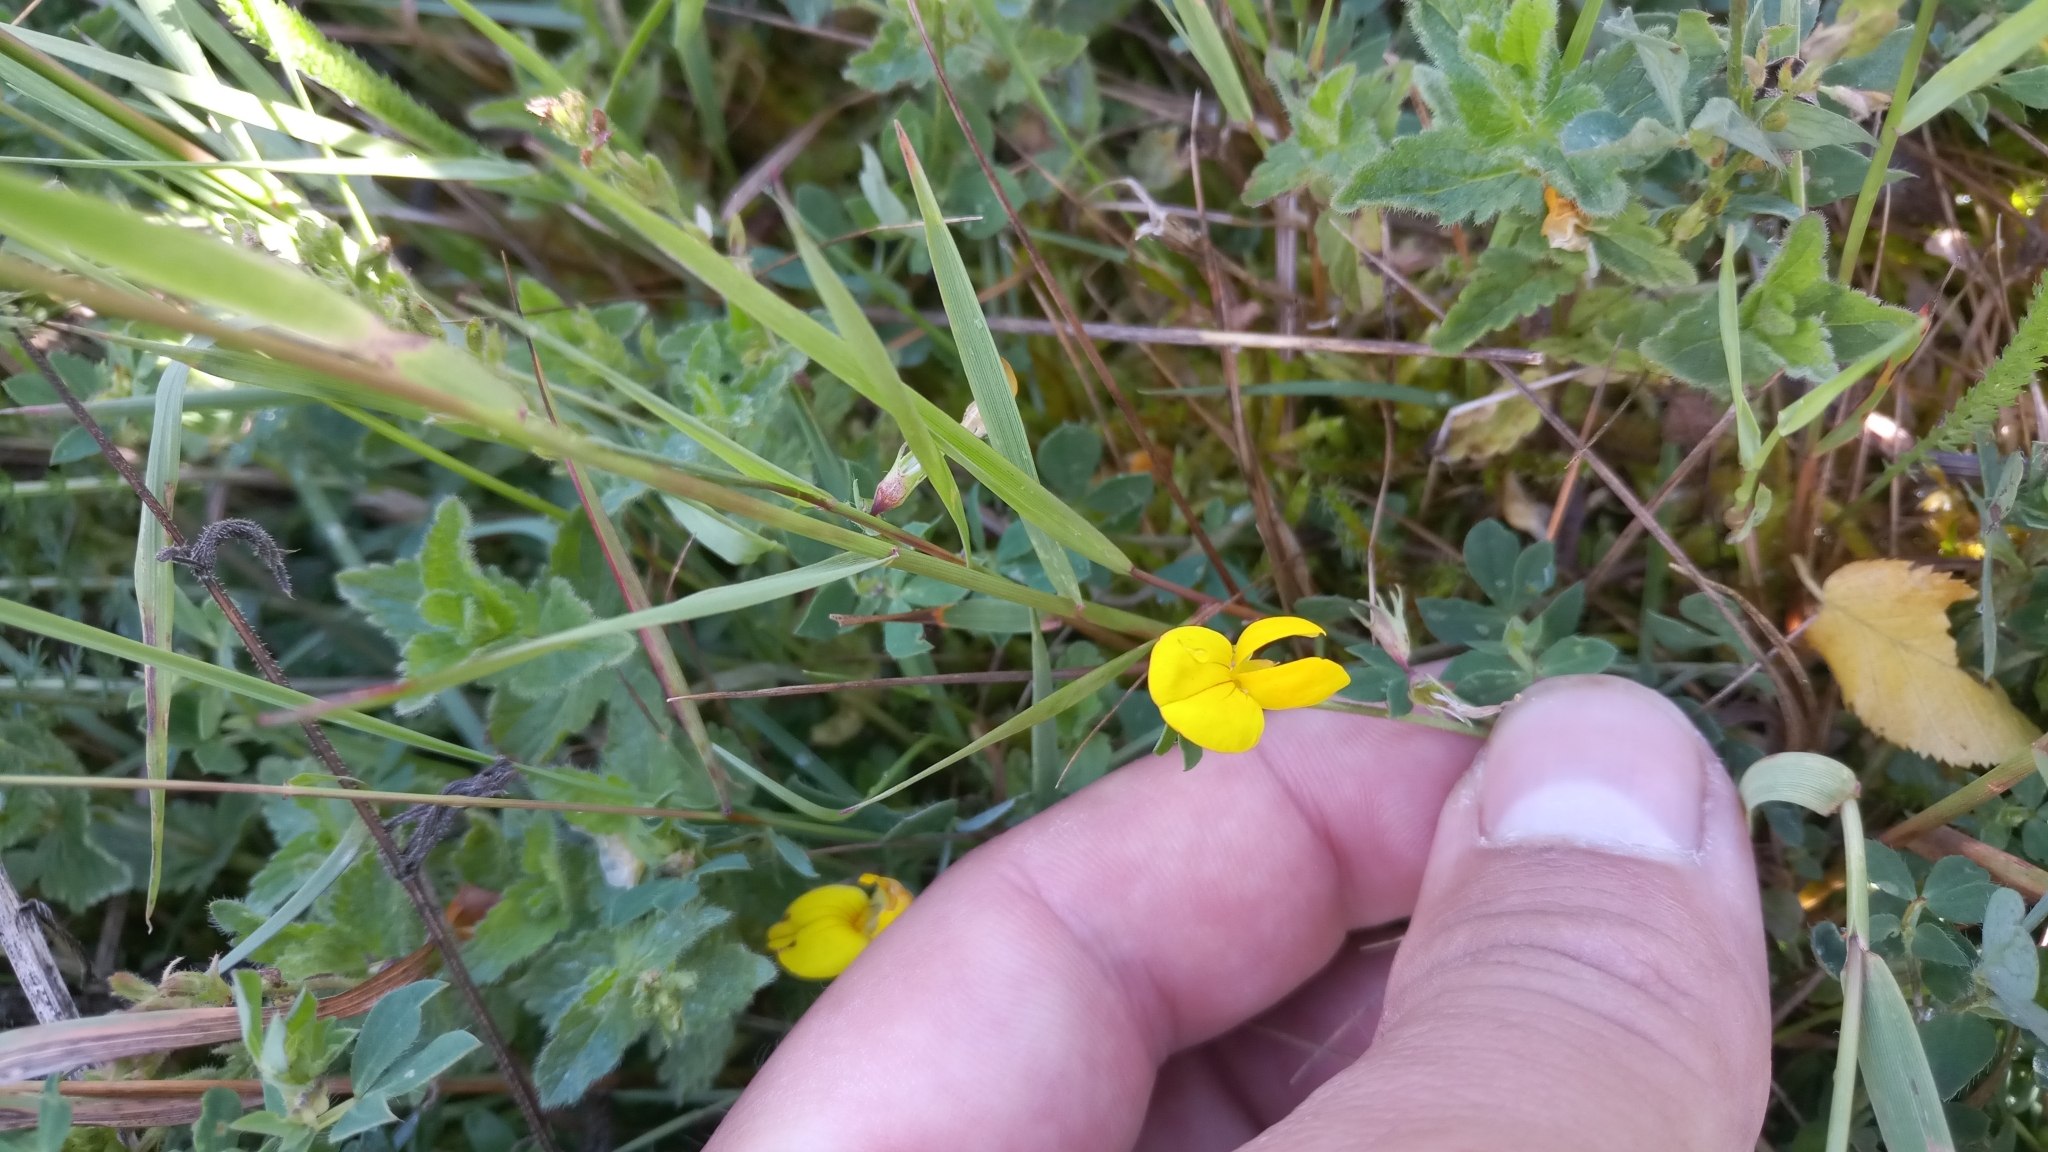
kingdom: Plantae
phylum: Tracheophyta
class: Magnoliopsida
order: Fabales
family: Fabaceae
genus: Lotus
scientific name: Lotus corniculatus
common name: Common bird's-foot-trefoil
